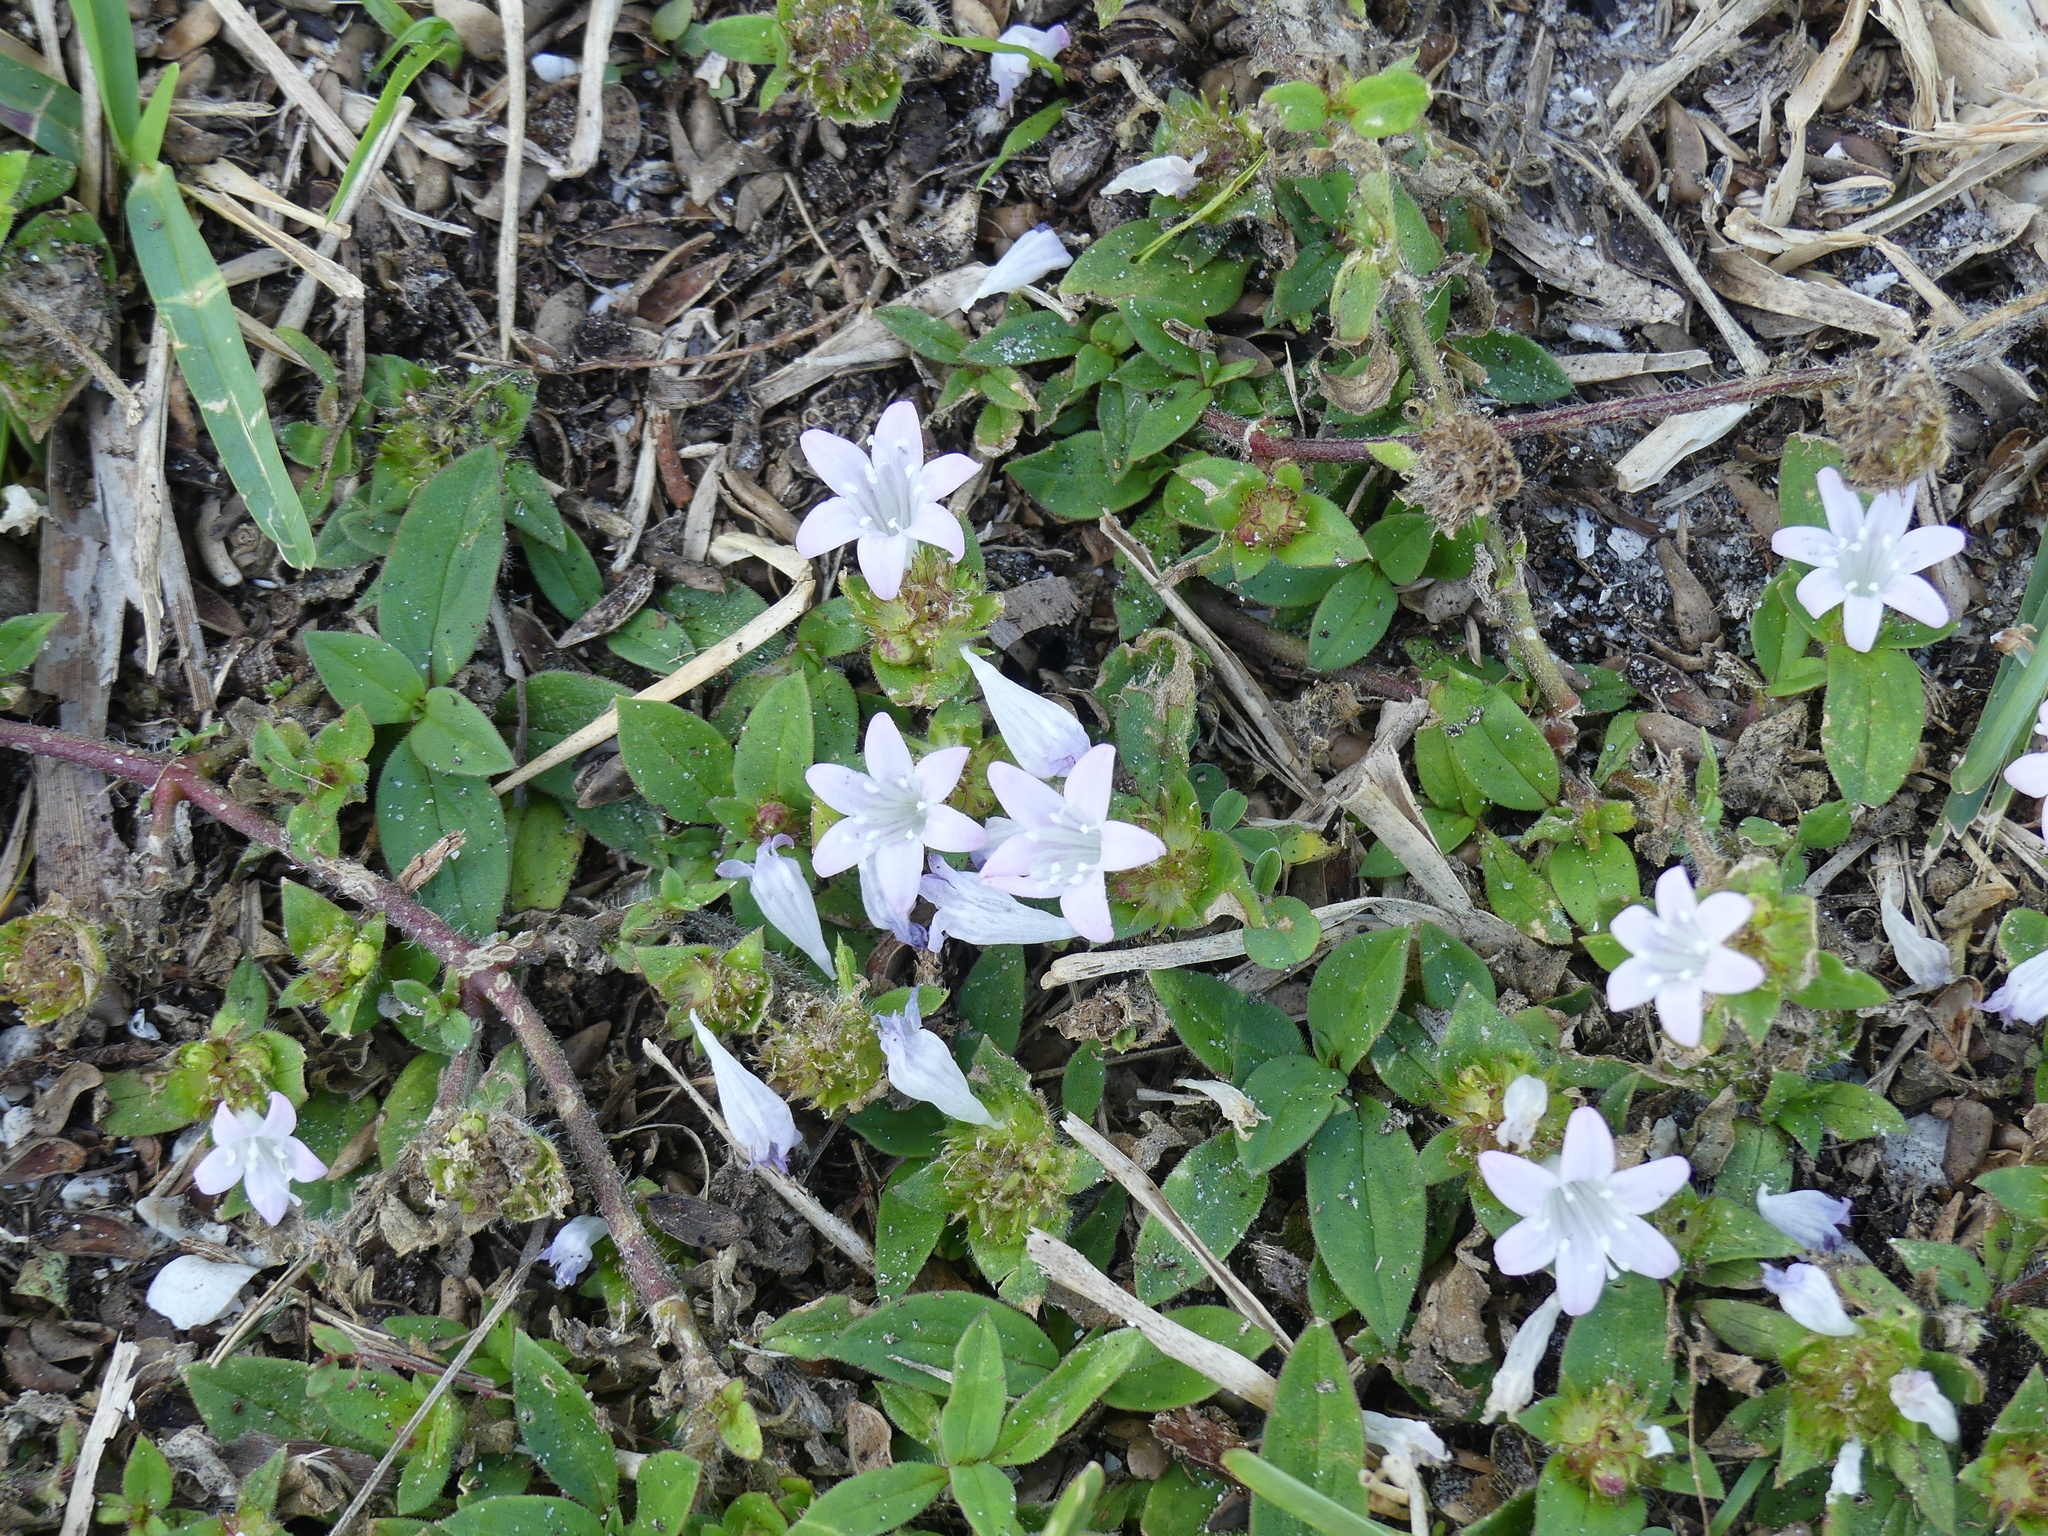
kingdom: Plantae
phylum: Tracheophyta
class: Magnoliopsida
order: Gentianales
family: Rubiaceae
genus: Richardia
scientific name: Richardia grandiflora
